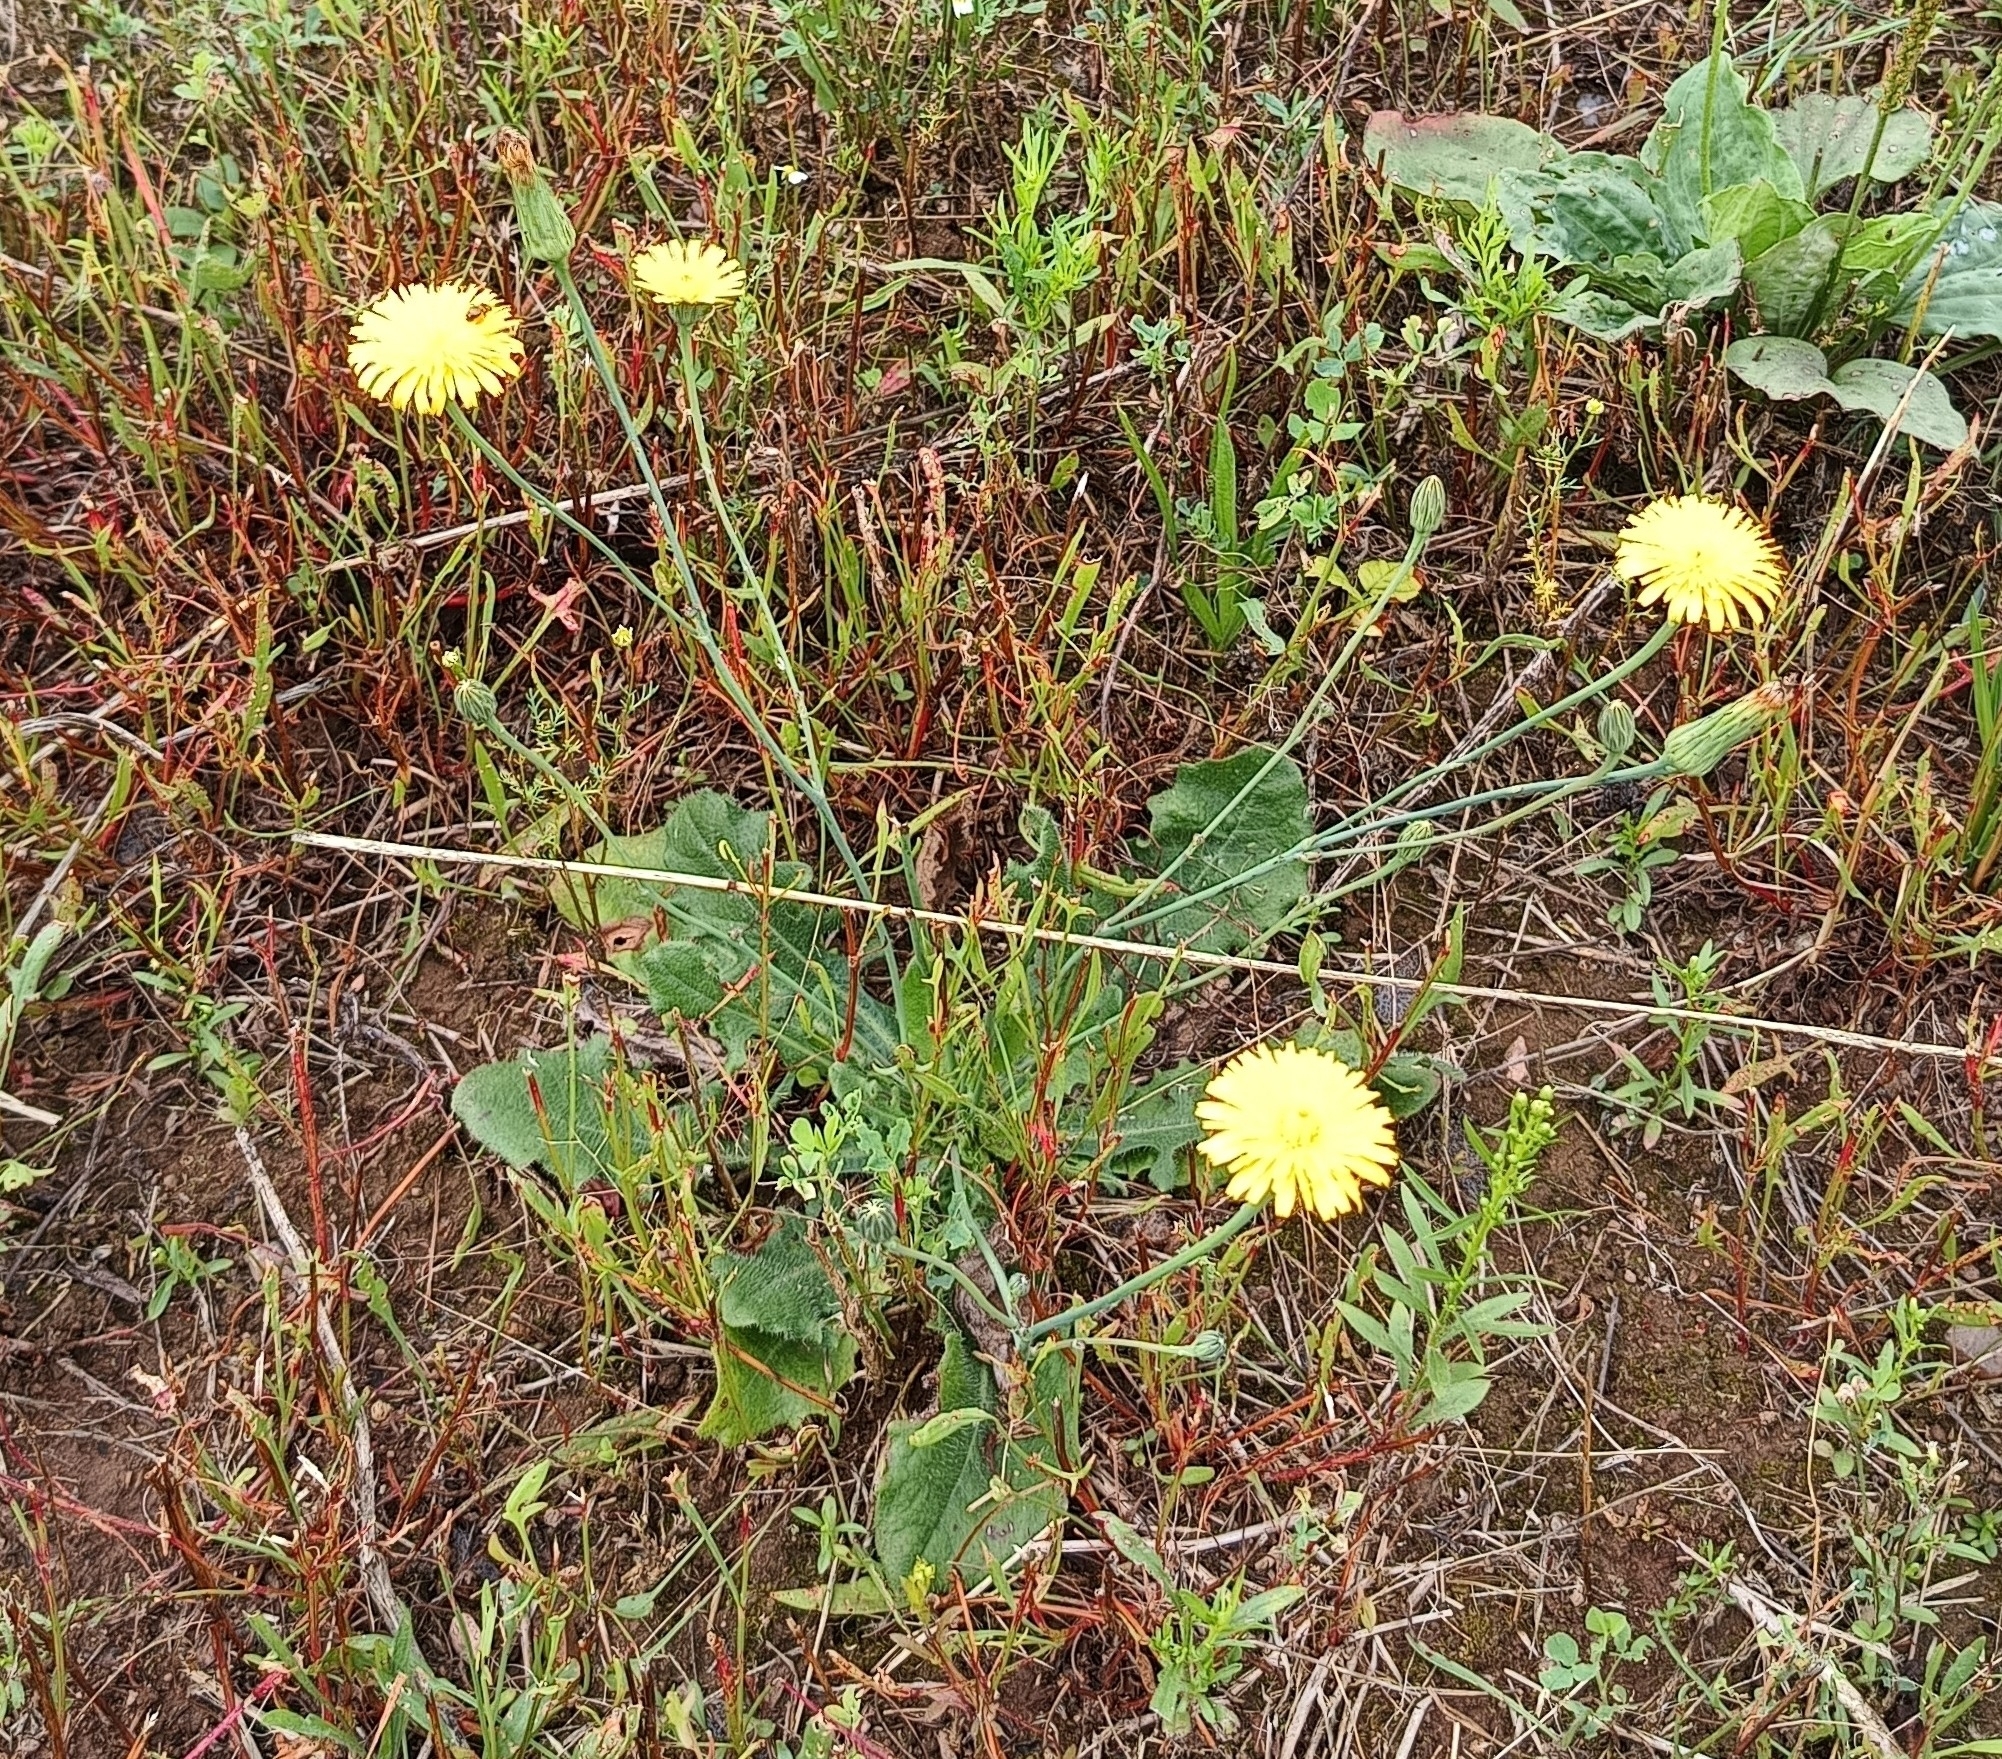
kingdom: Plantae
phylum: Tracheophyta
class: Magnoliopsida
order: Asterales
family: Asteraceae
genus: Hypochaeris
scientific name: Hypochaeris radicata
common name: Flatweed
